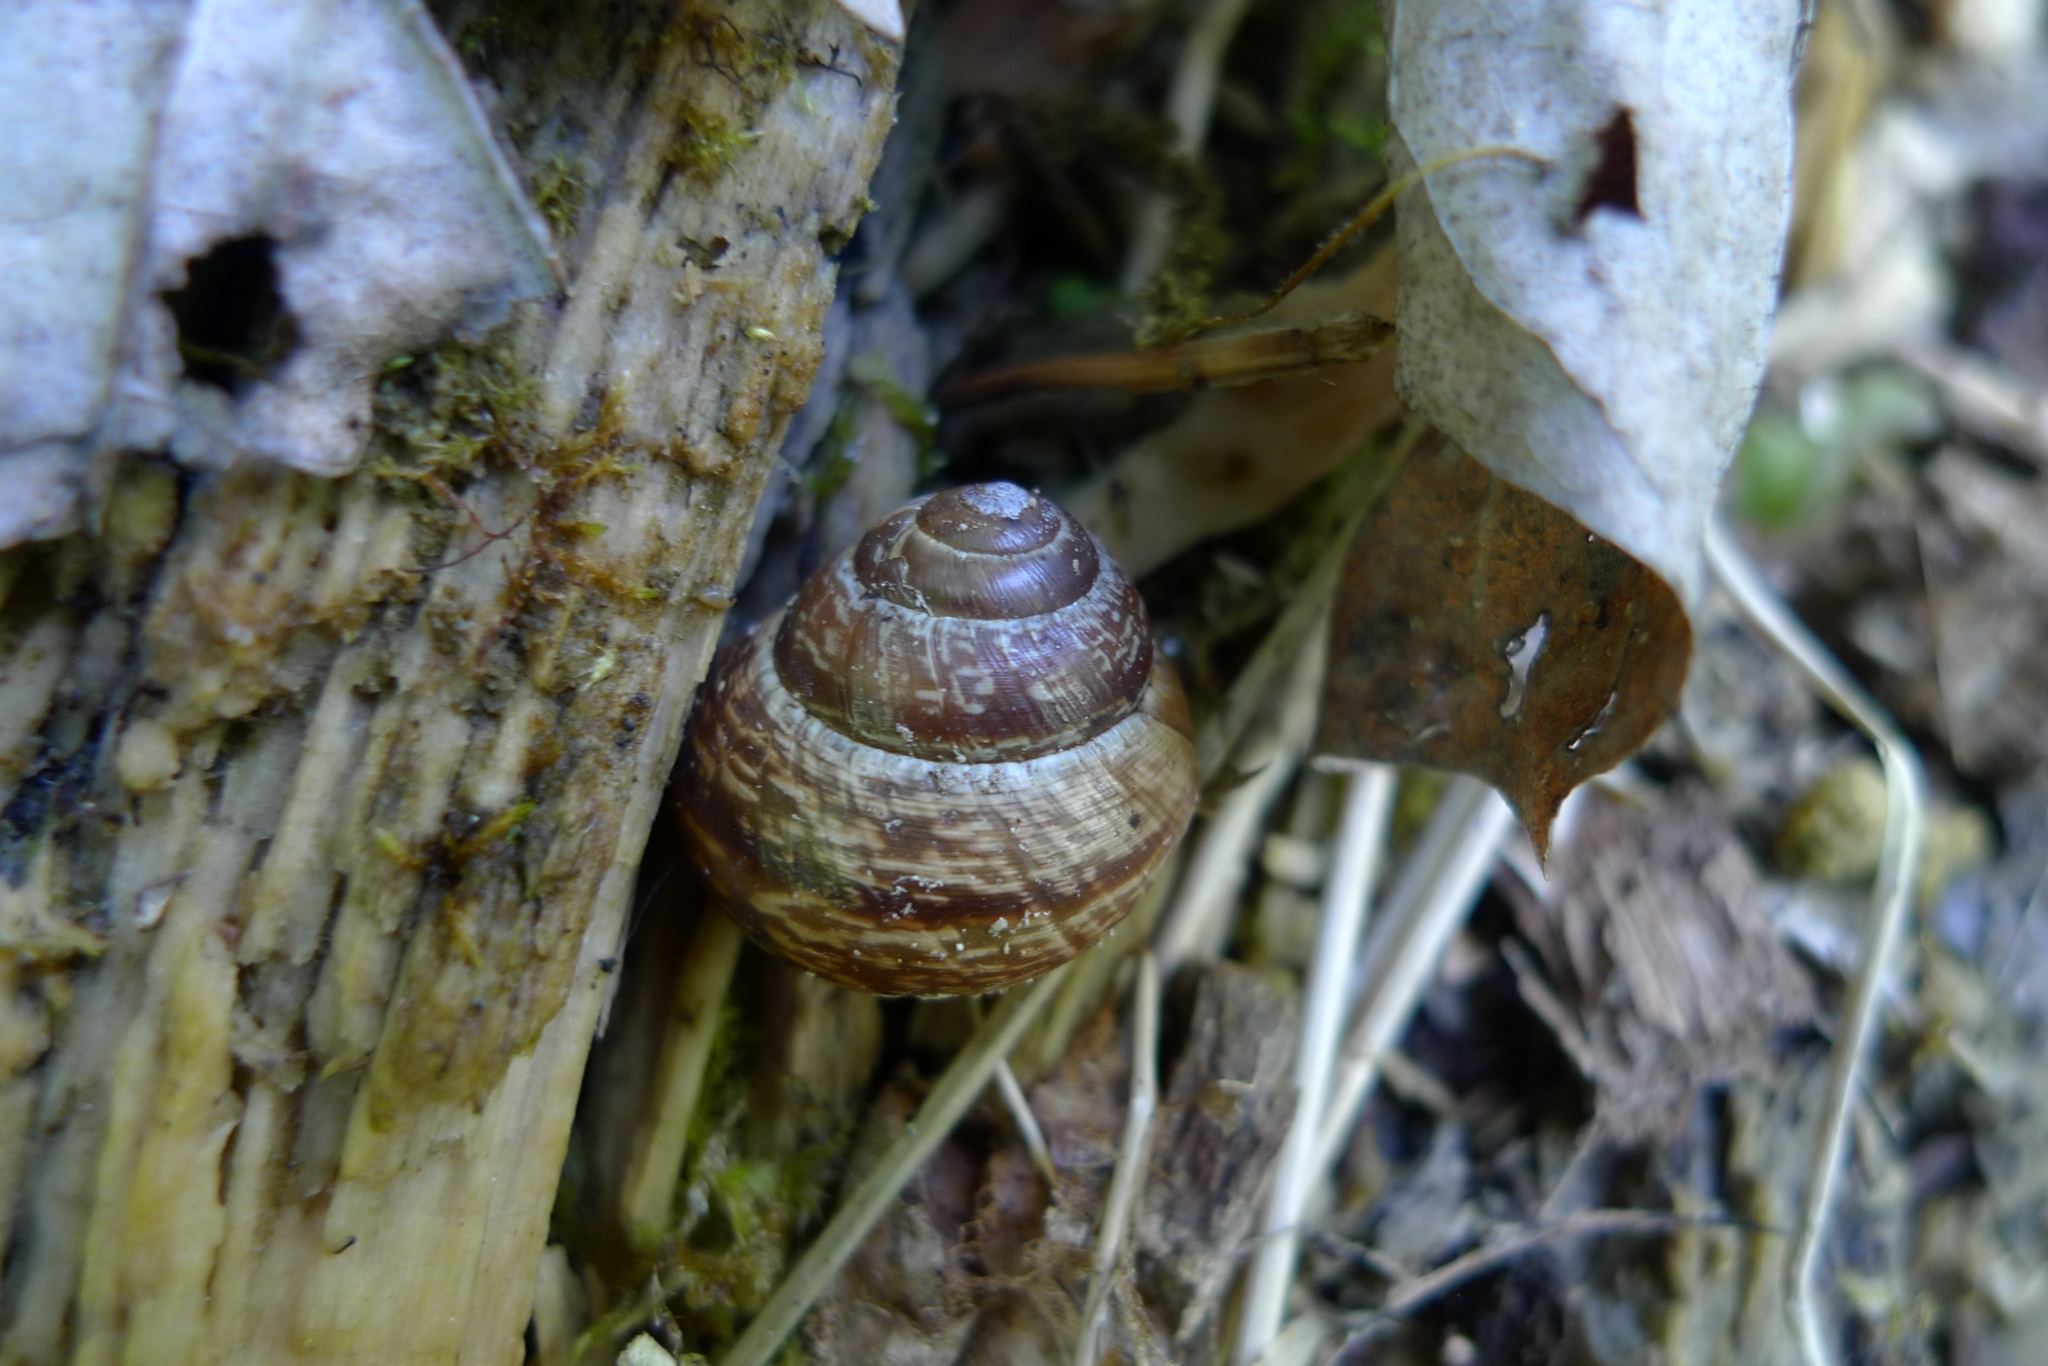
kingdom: Animalia
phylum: Mollusca
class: Gastropoda
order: Stylommatophora
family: Helicidae
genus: Arianta
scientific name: Arianta arbustorum
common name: Copse snail
